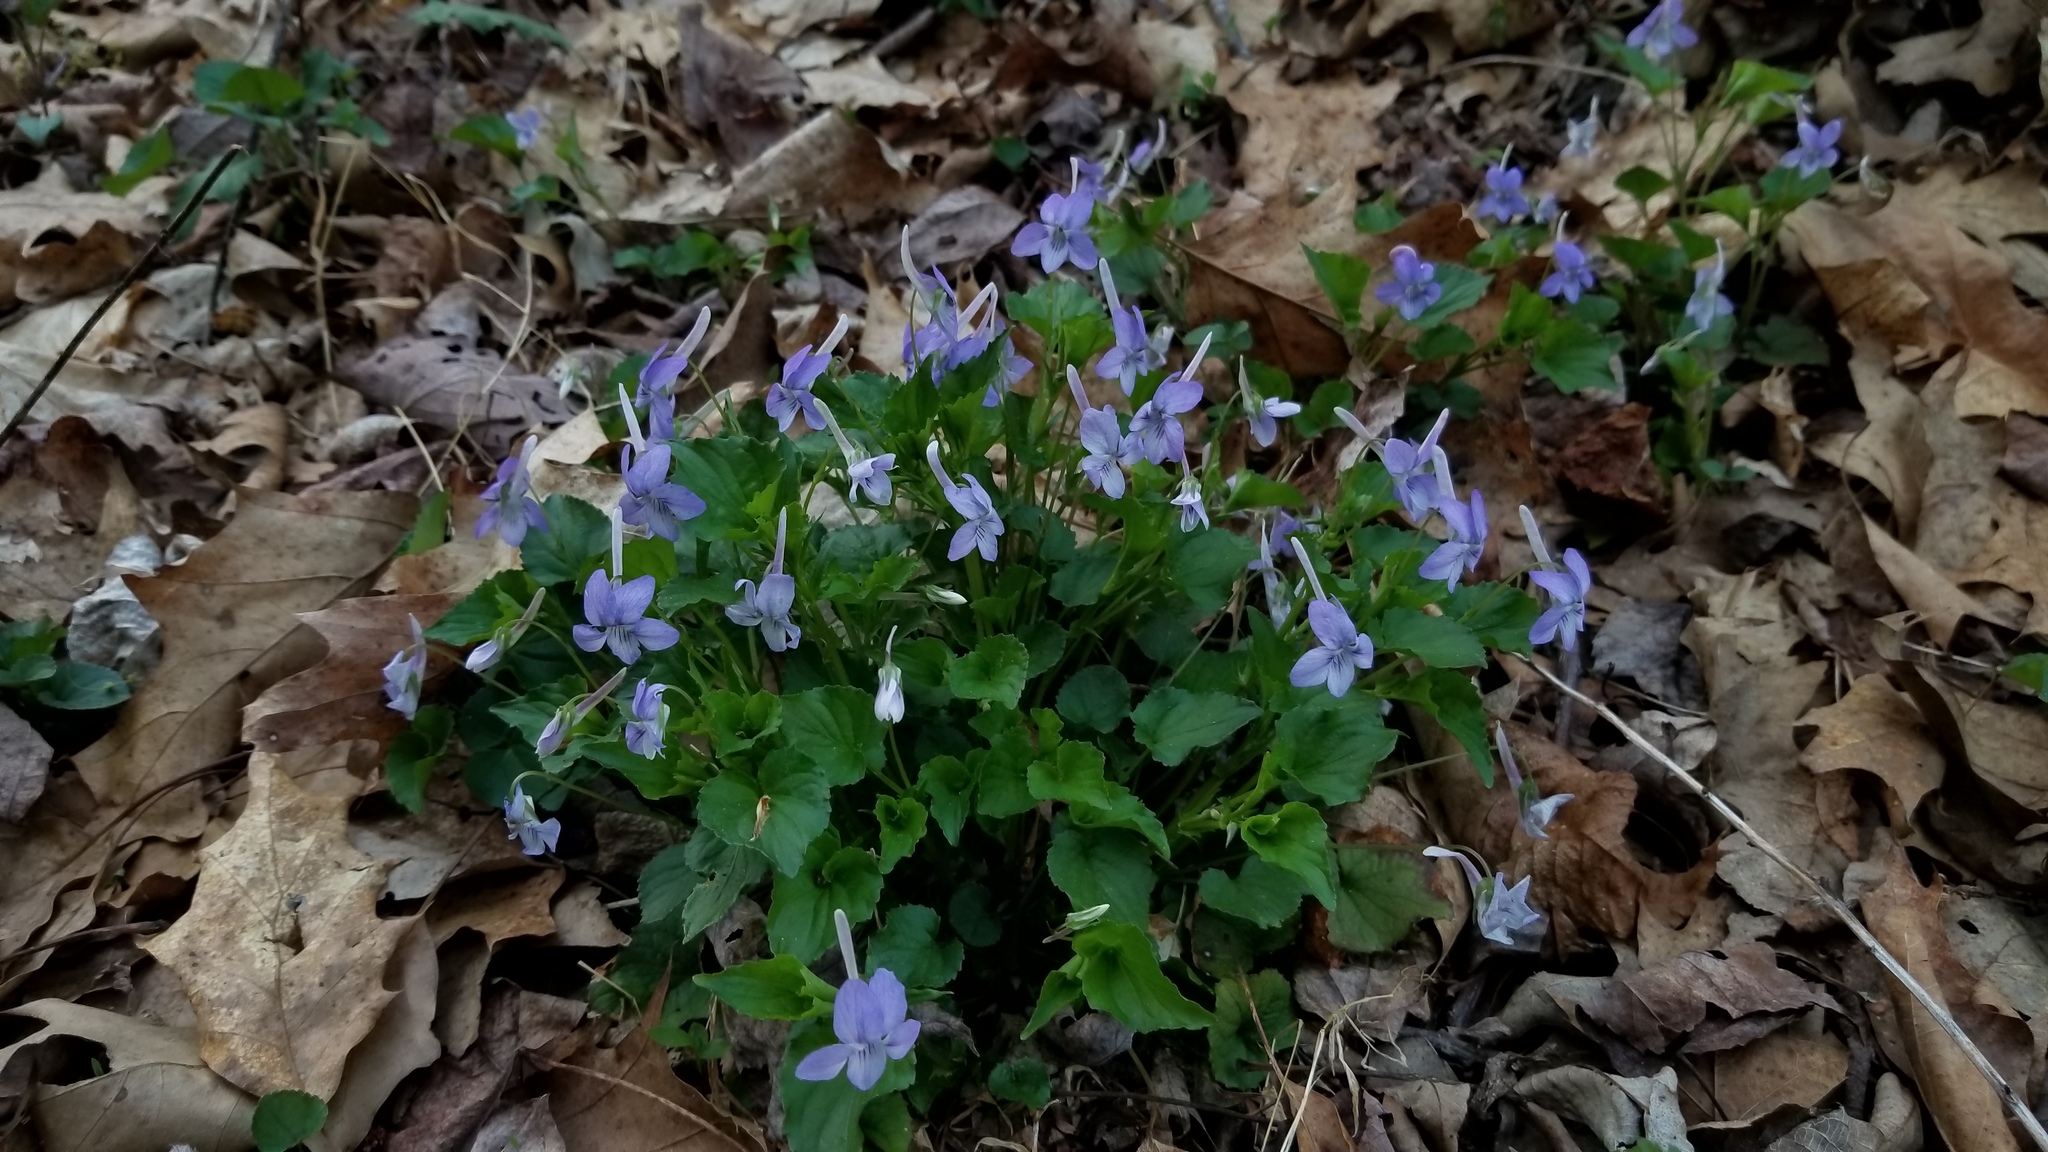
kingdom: Plantae
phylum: Tracheophyta
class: Magnoliopsida
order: Malpighiales
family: Violaceae
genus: Viola
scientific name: Viola rostrata
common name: Long-spur violet
